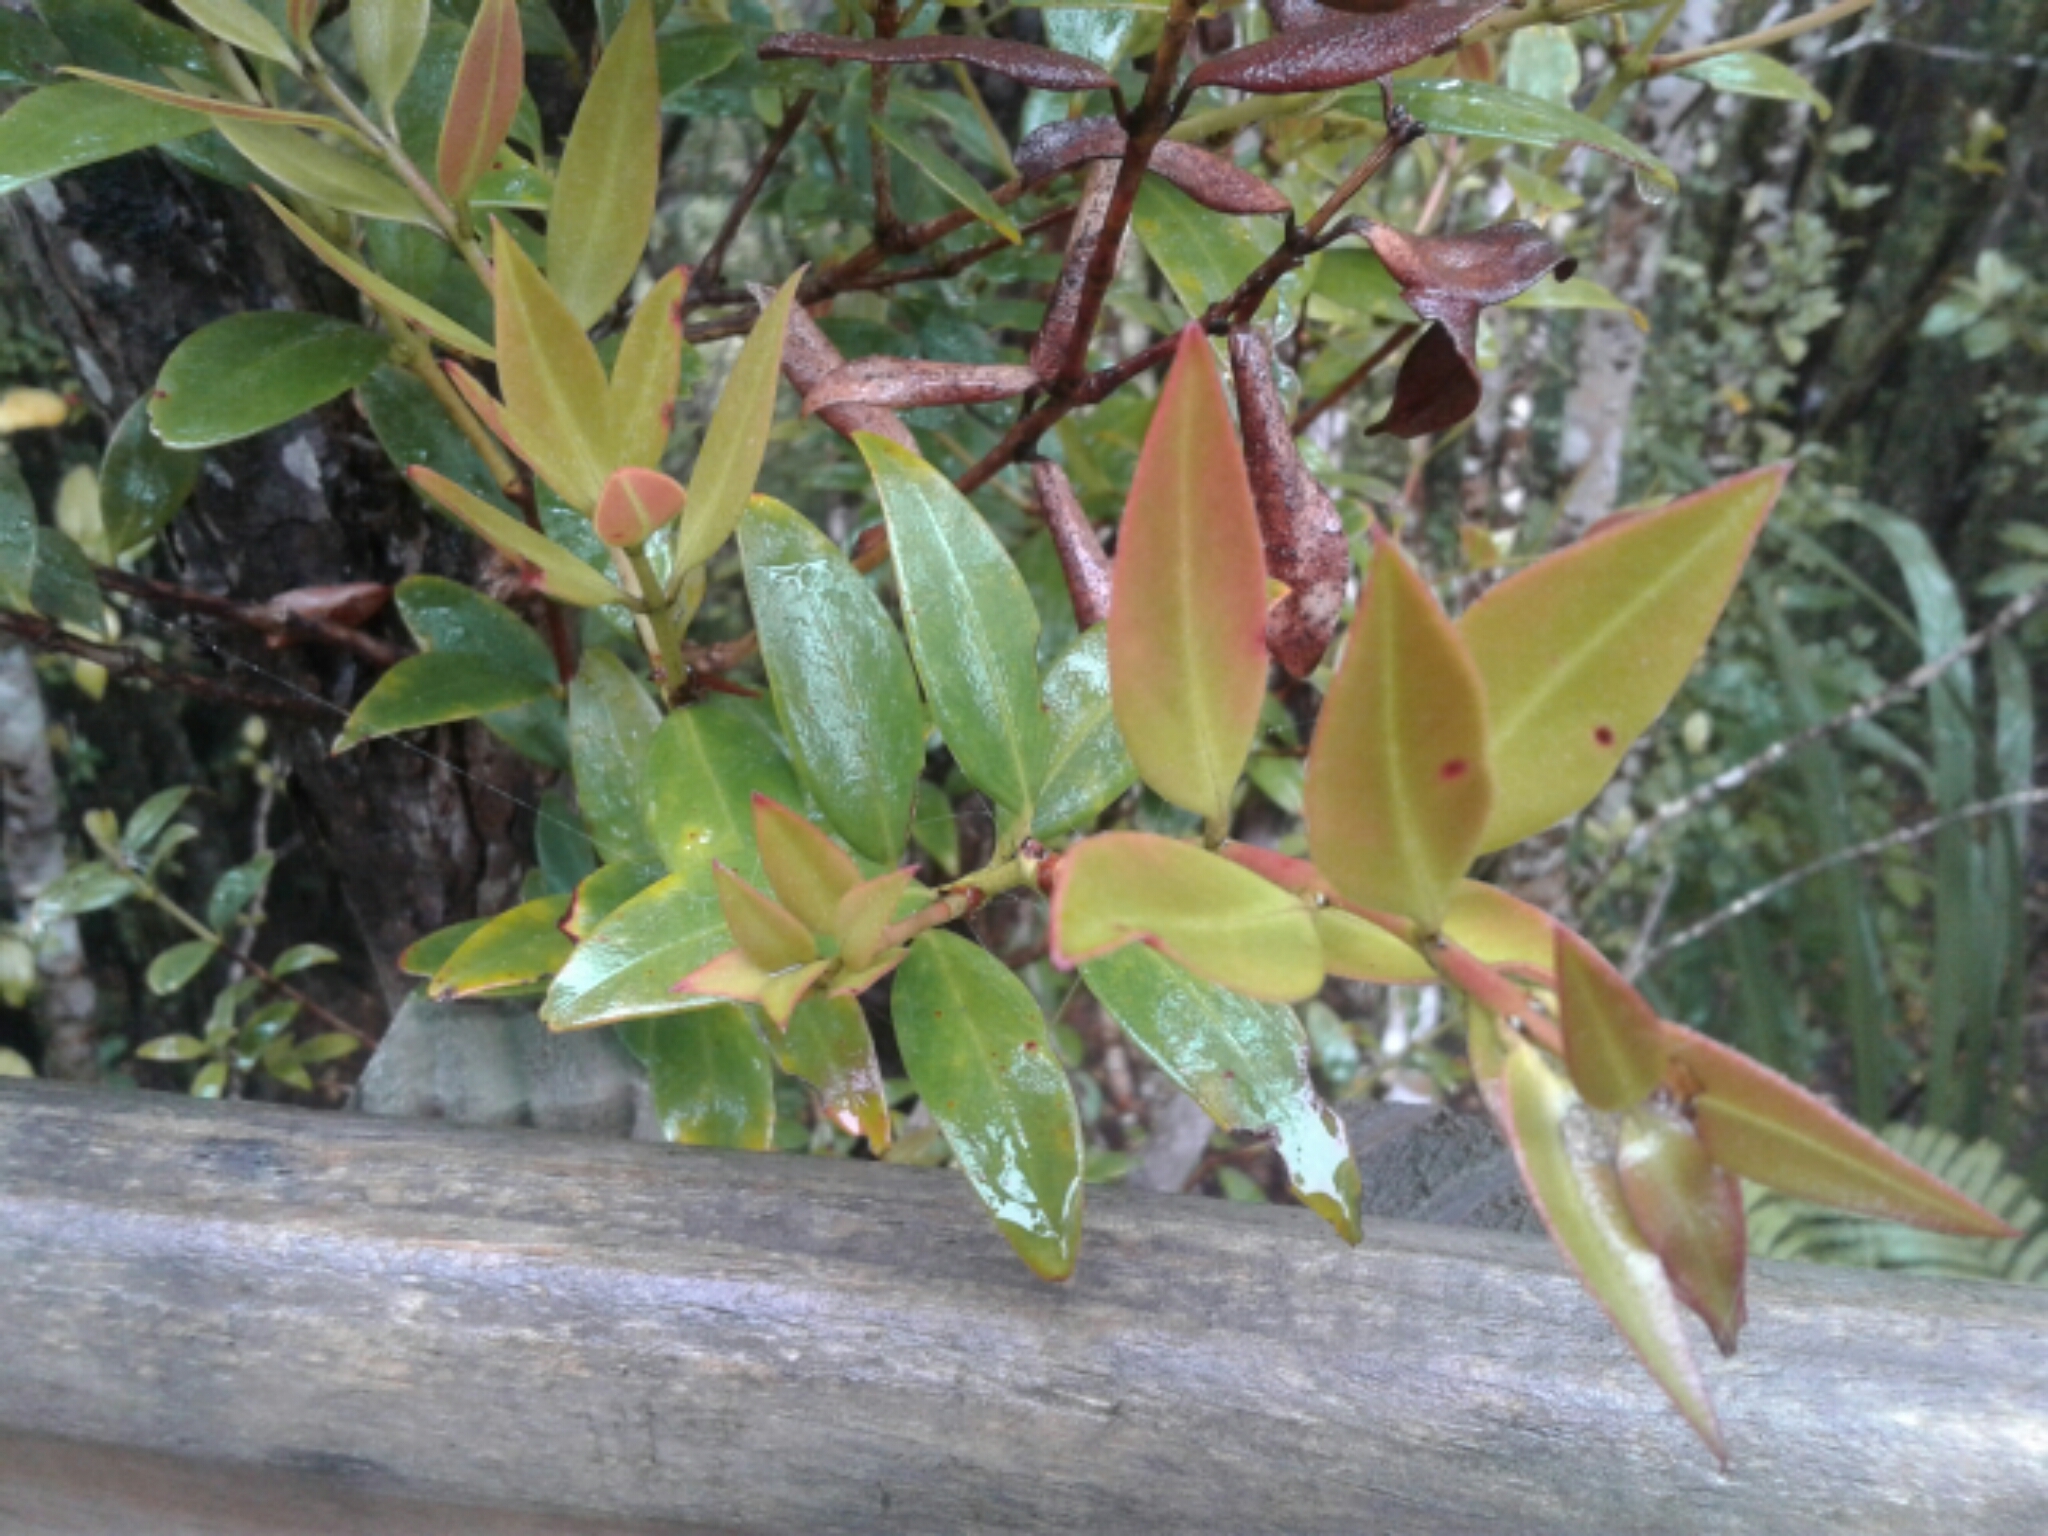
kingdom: Plantae
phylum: Tracheophyta
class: Magnoliopsida
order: Myrtales
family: Myrtaceae
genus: Metrosideros
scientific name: Metrosideros umbellata
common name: Southern rata
